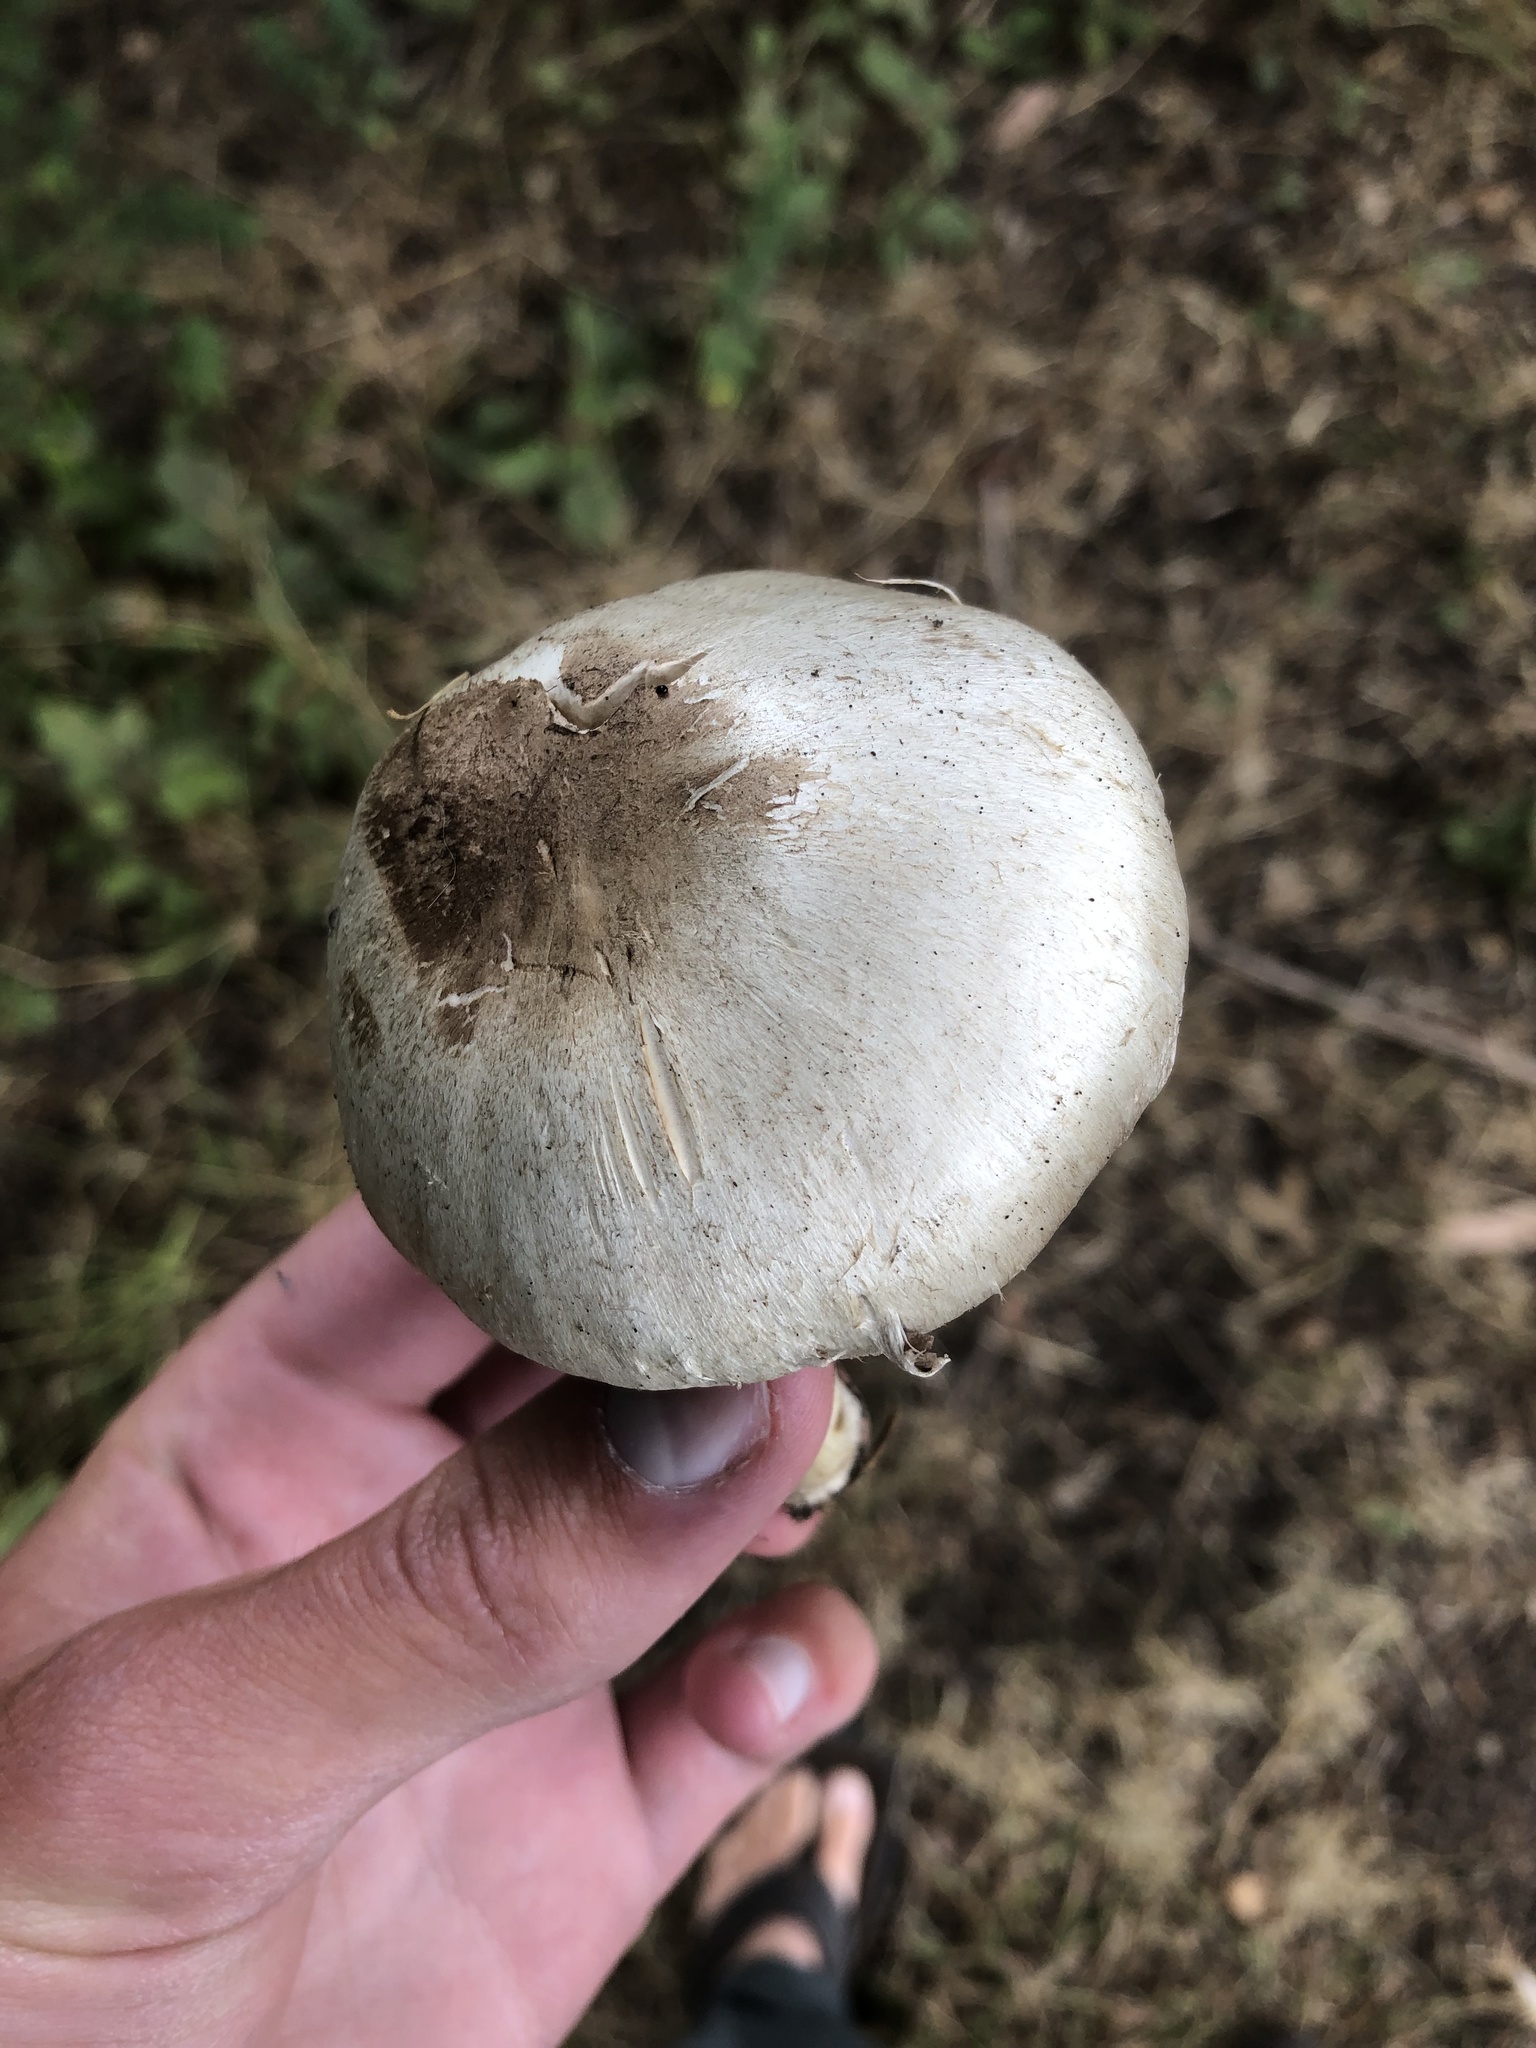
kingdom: Fungi
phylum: Basidiomycota
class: Agaricomycetes
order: Agaricales
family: Agaricaceae
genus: Agaricus
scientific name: Agaricus californicus
